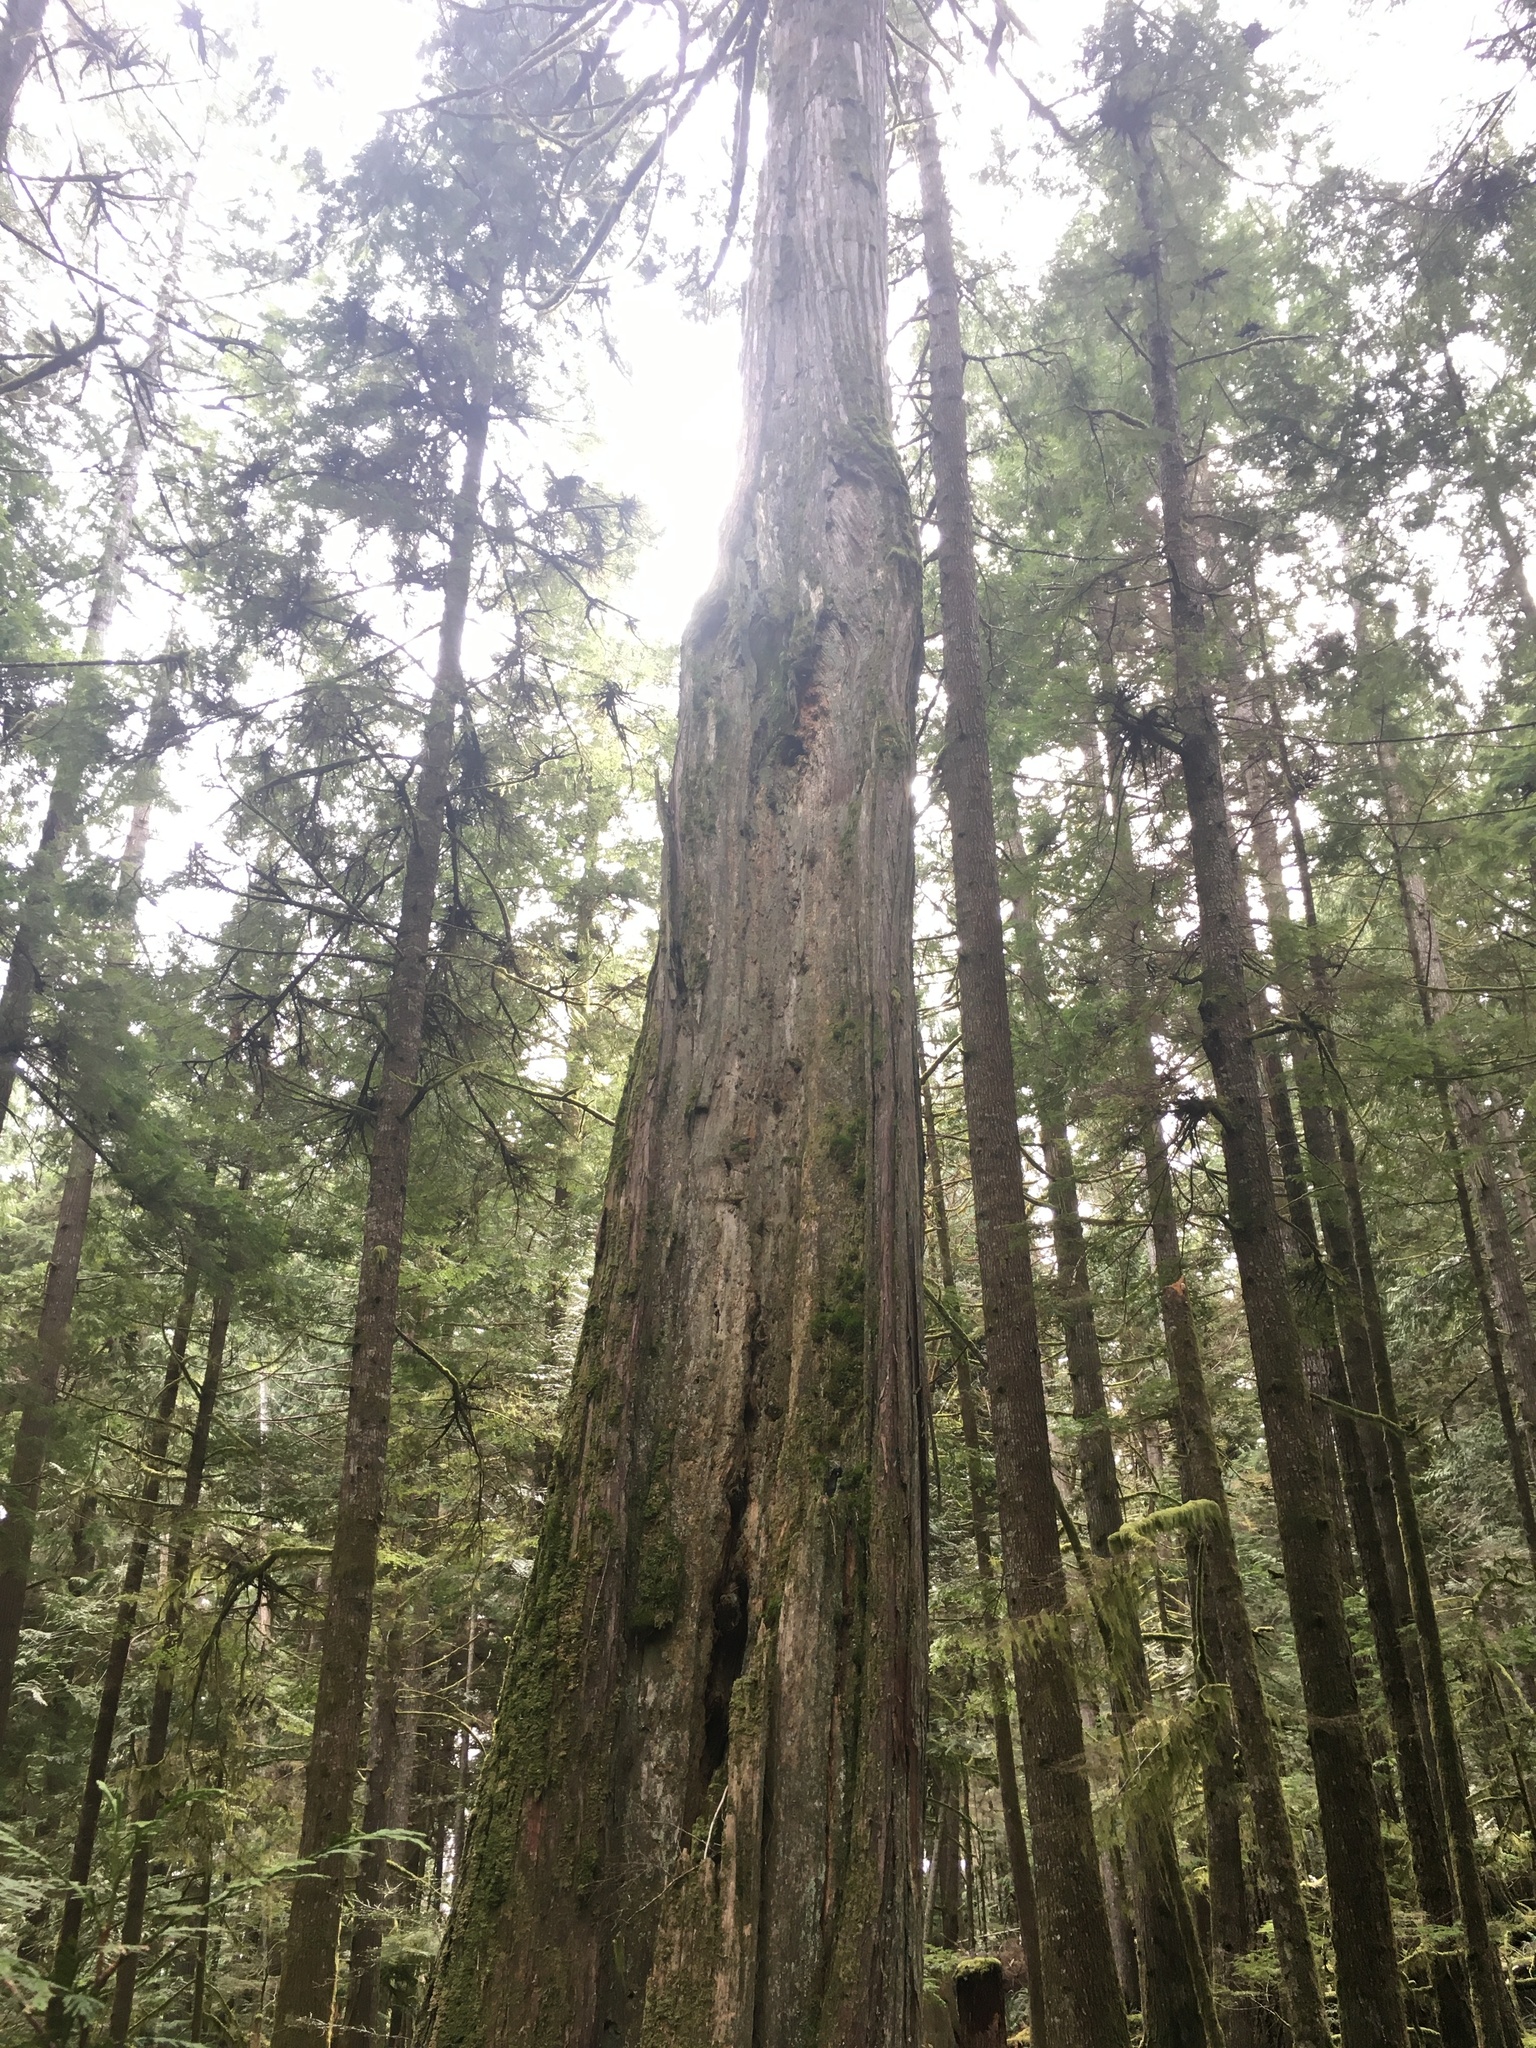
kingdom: Plantae
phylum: Tracheophyta
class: Pinopsida
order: Pinales
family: Cupressaceae
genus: Thuja
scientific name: Thuja plicata
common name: Western red-cedar
